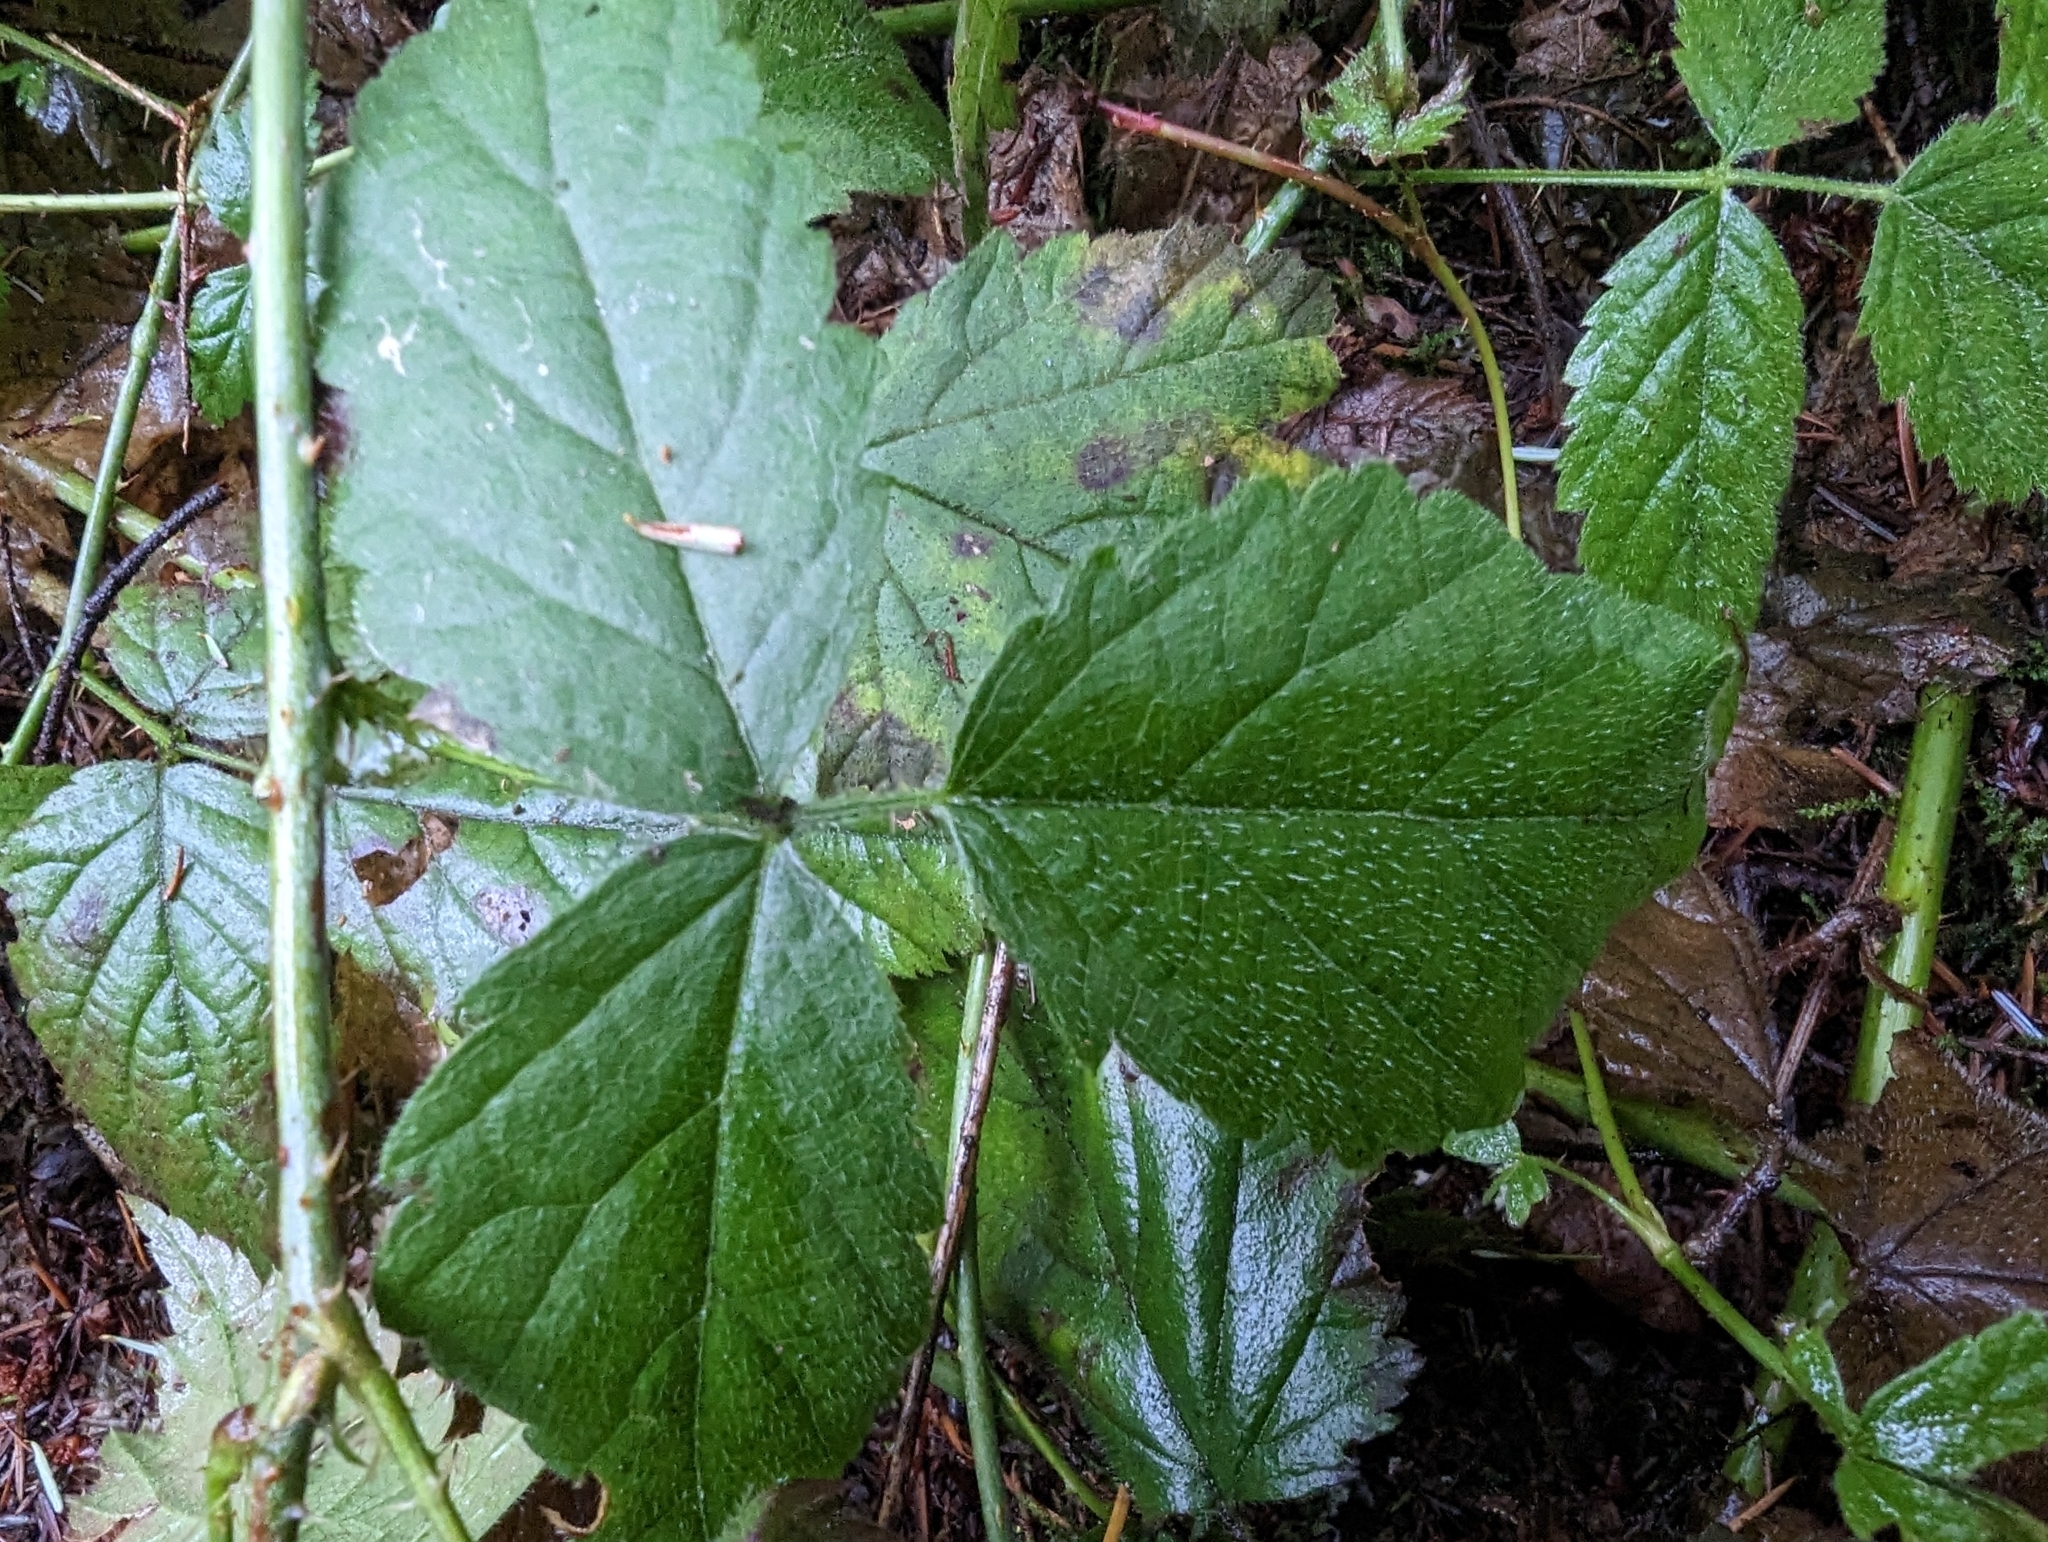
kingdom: Plantae
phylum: Tracheophyta
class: Magnoliopsida
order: Rosales
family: Rosaceae
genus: Rubus
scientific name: Rubus ursinus
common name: Pacific blackberry
